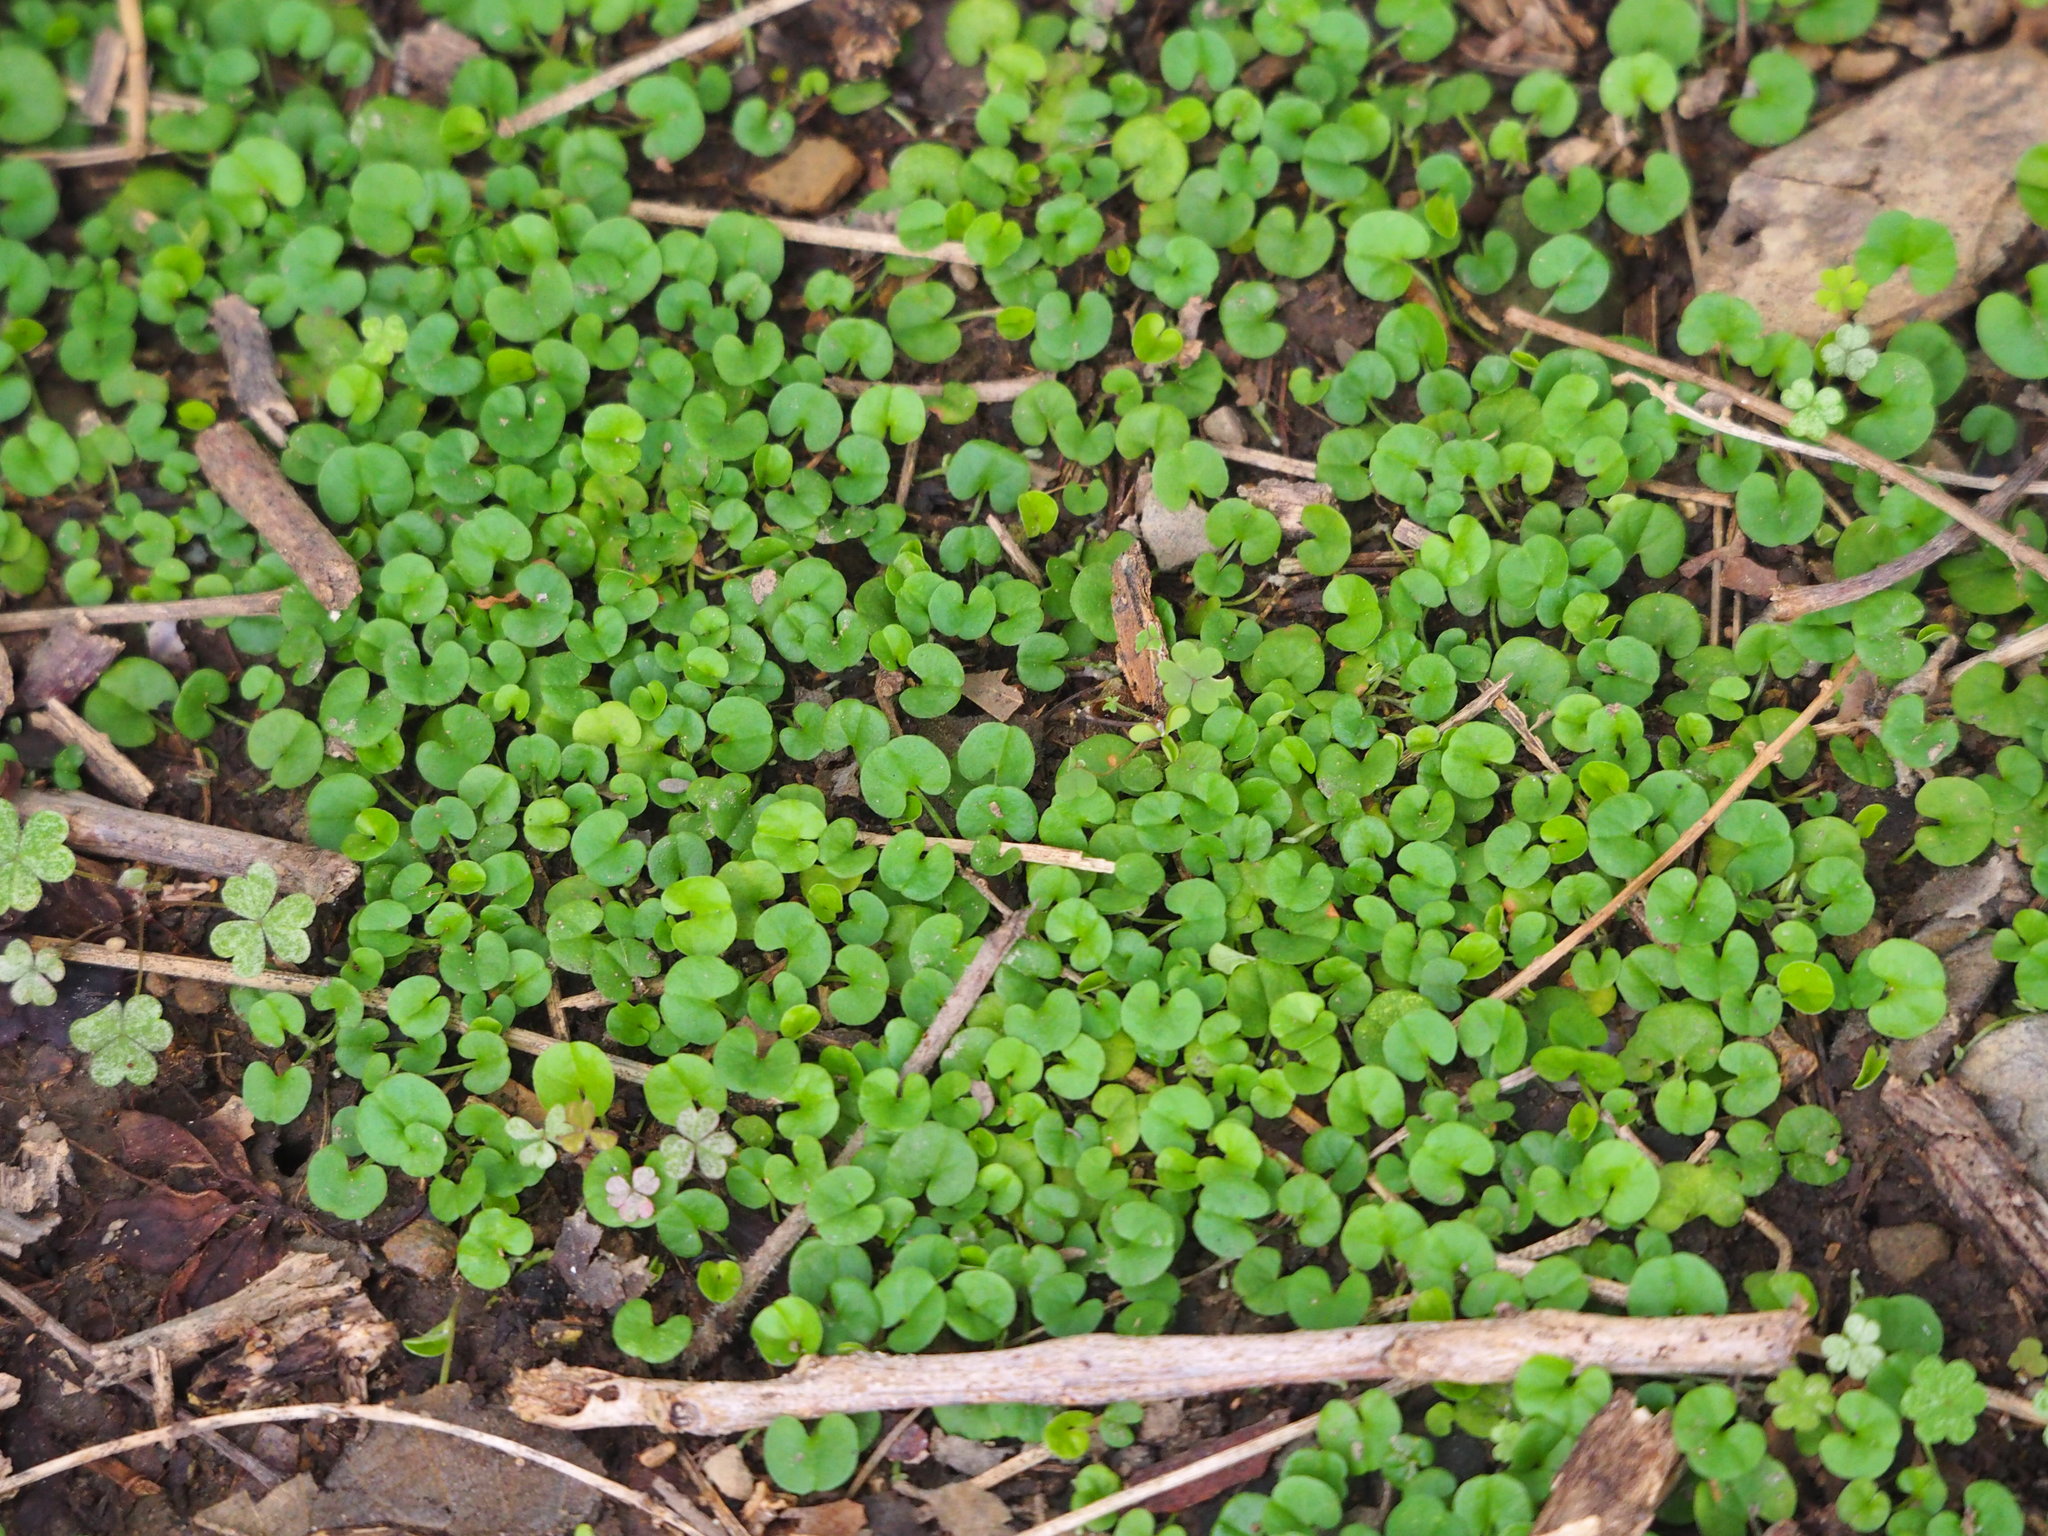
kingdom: Plantae
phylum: Tracheophyta
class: Magnoliopsida
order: Solanales
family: Convolvulaceae
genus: Dichondra
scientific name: Dichondra micrantha
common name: Kidneyweed
